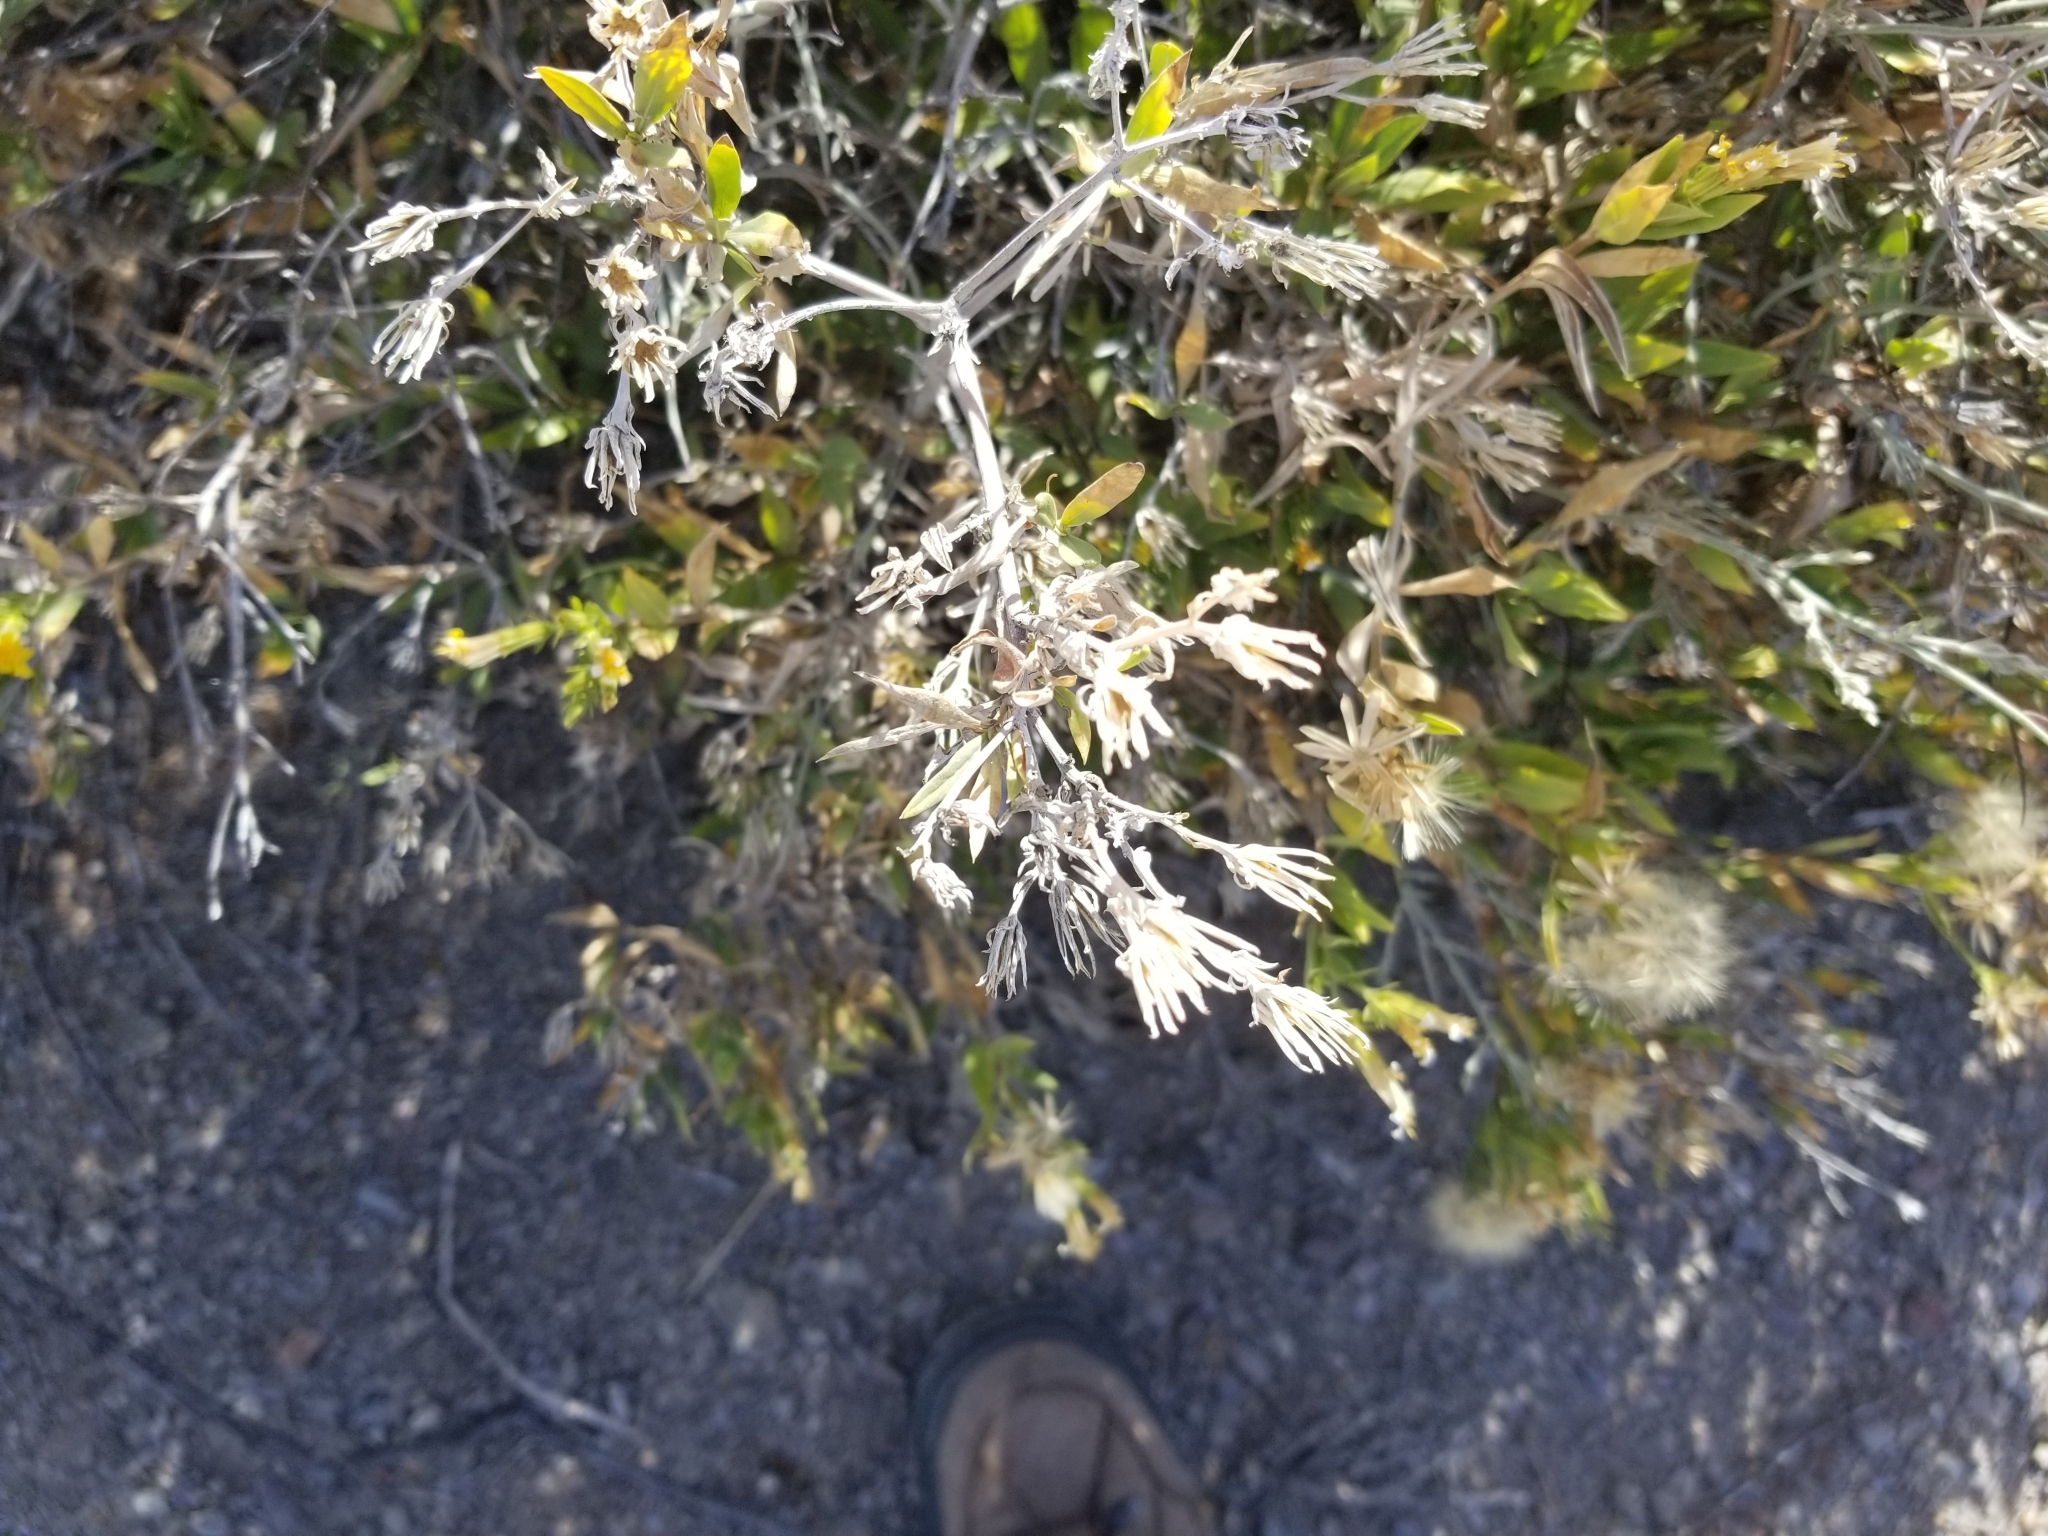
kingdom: Plantae
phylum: Tracheophyta
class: Magnoliopsida
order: Asterales
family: Asteraceae
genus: Trixis
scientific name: Trixis californica
